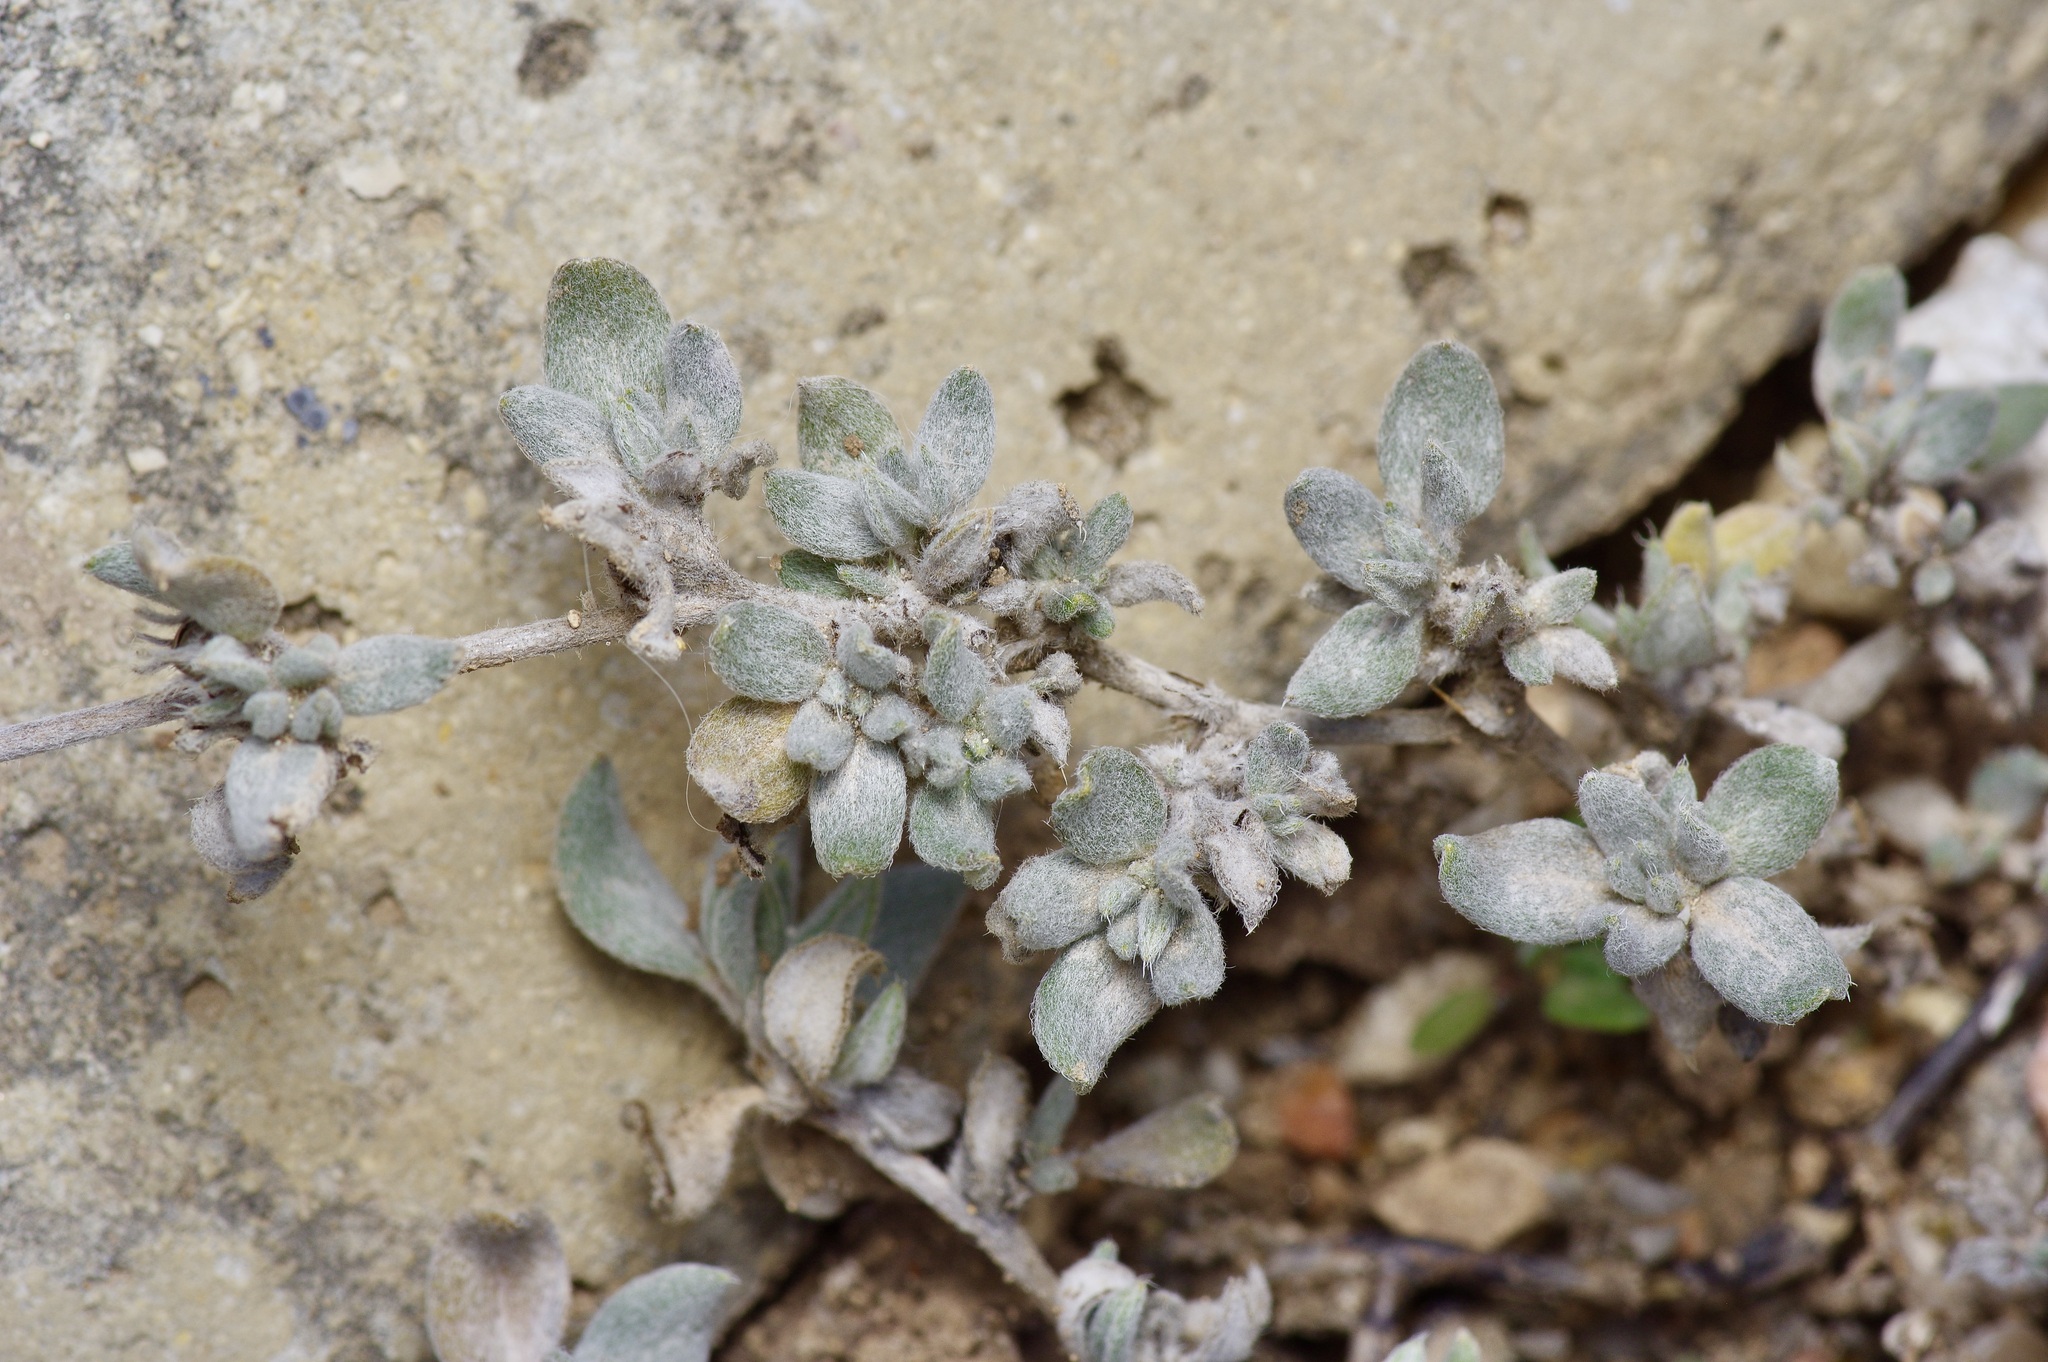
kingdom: Plantae
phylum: Tracheophyta
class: Magnoliopsida
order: Boraginales
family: Ehretiaceae
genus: Tiquilia
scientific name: Tiquilia canescens
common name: Hairy tiquilia
